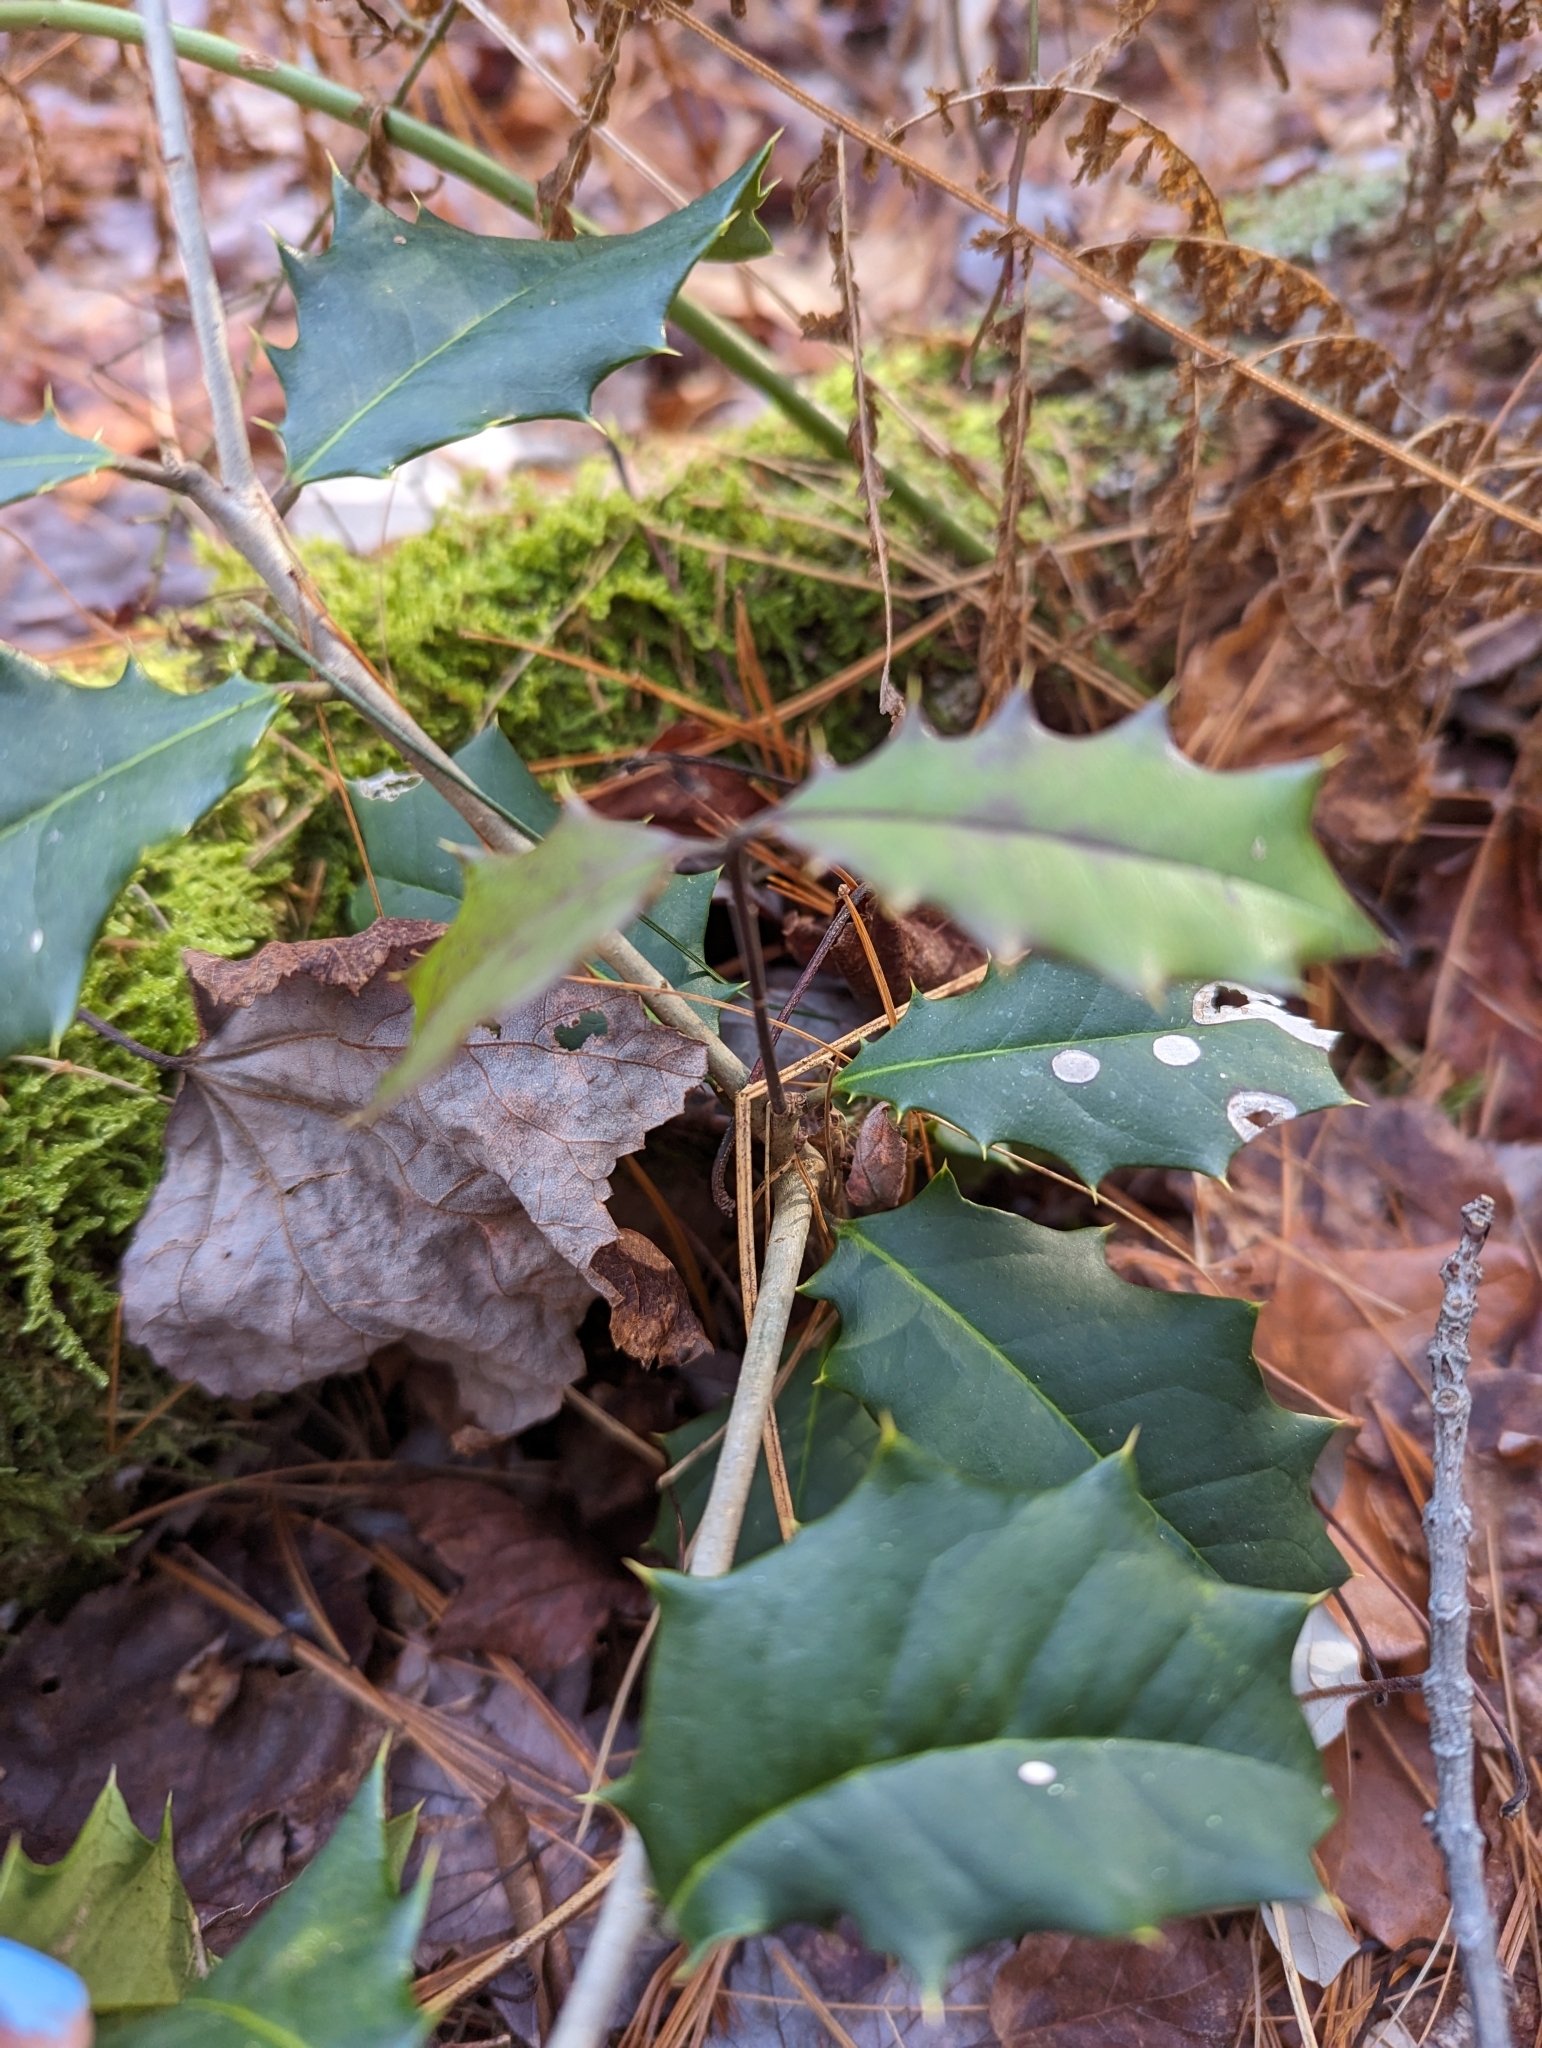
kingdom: Plantae
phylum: Tracheophyta
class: Magnoliopsida
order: Aquifoliales
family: Aquifoliaceae
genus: Ilex
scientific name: Ilex opaca
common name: American holly
